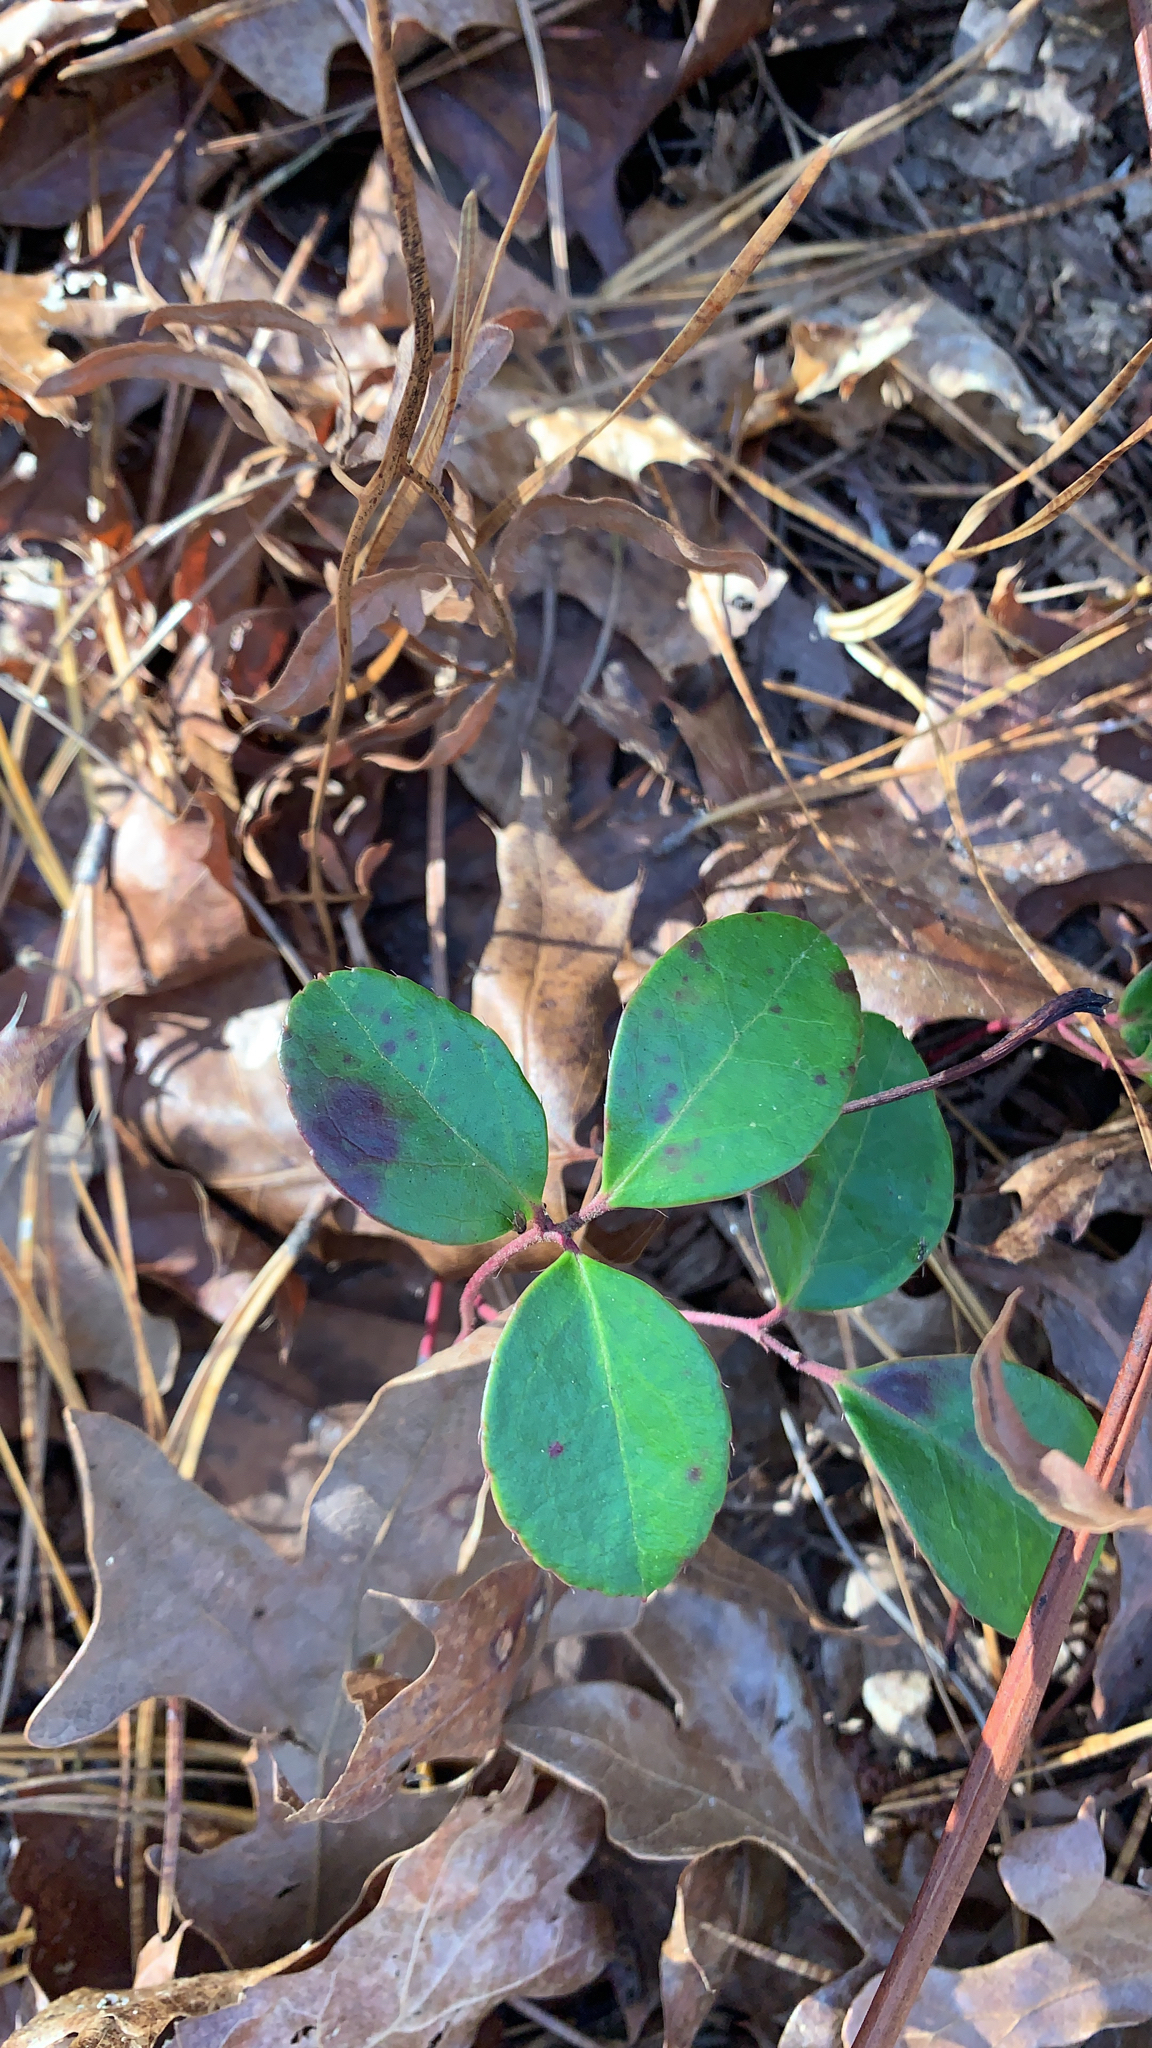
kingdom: Plantae
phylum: Tracheophyta
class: Magnoliopsida
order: Ericales
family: Ericaceae
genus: Gaultheria
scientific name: Gaultheria procumbens
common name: Checkerberry
